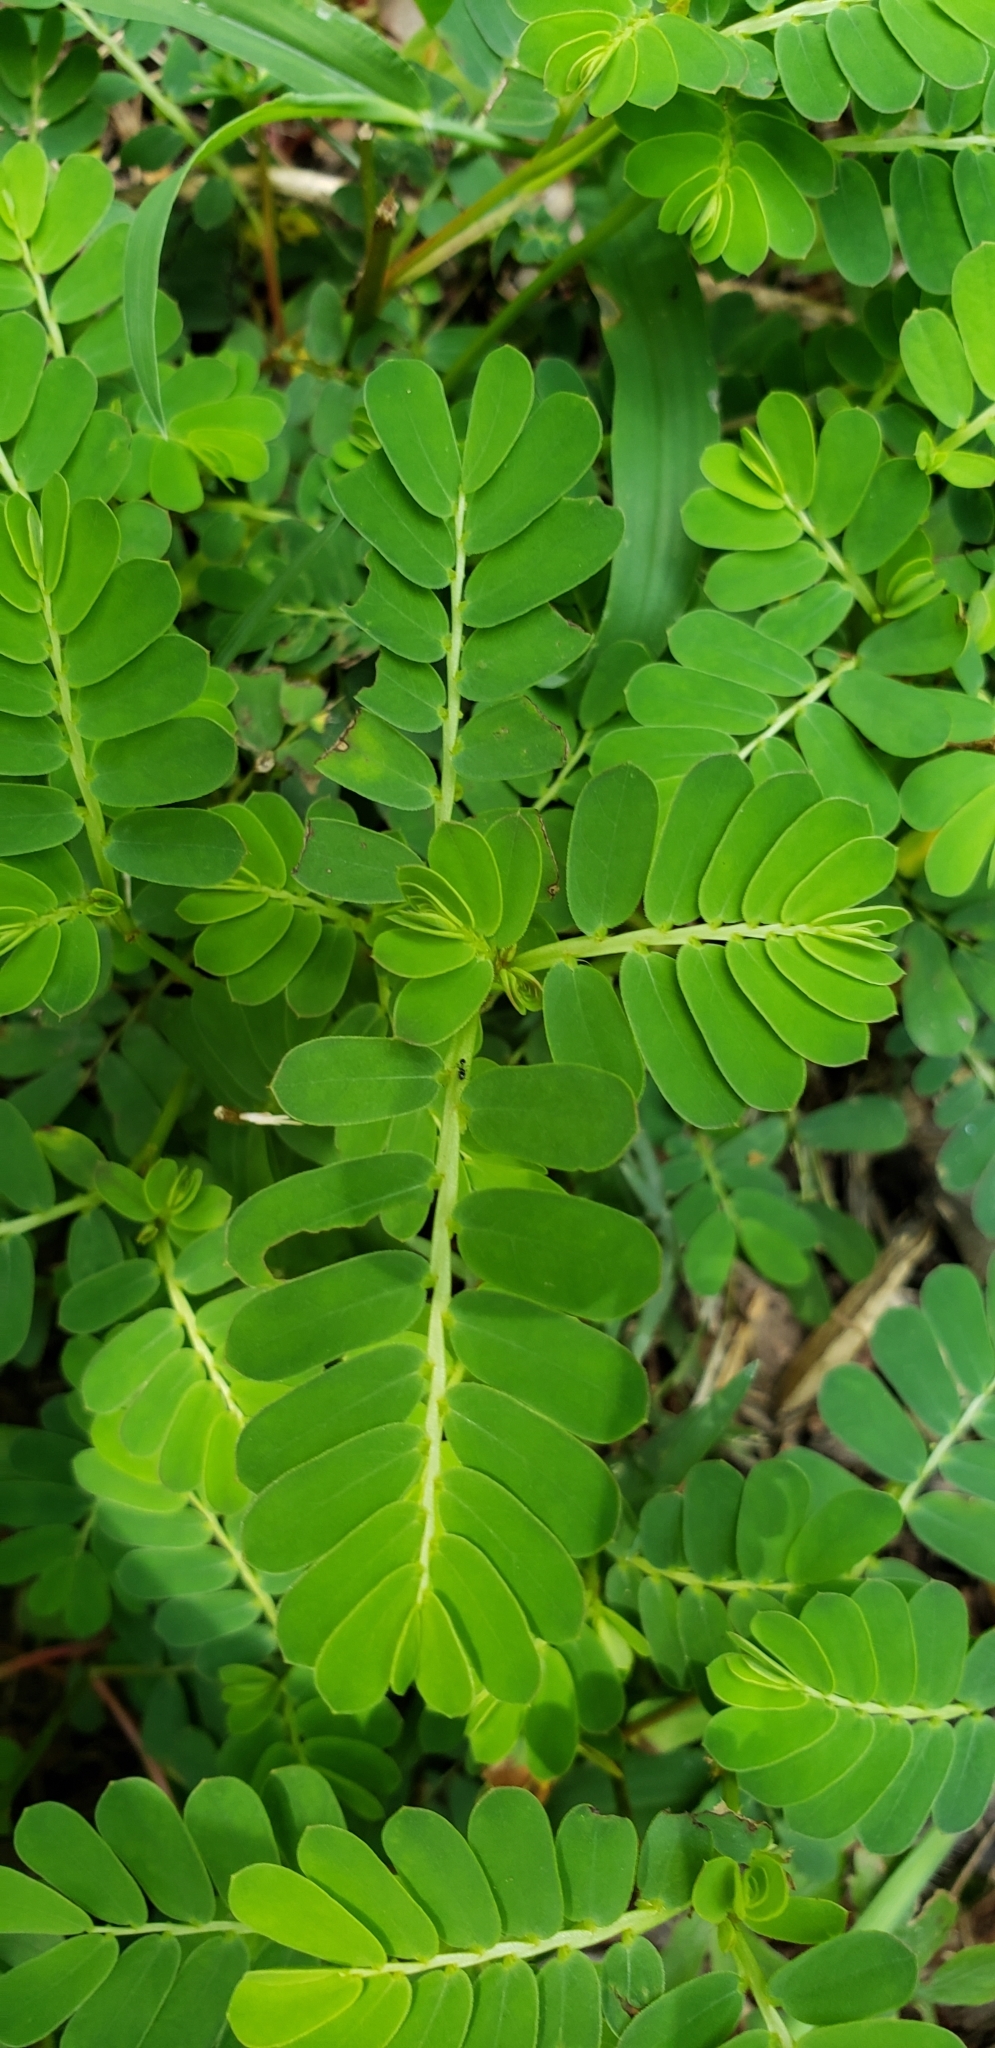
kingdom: Plantae
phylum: Tracheophyta
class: Magnoliopsida
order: Malpighiales
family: Phyllanthaceae
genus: Phyllanthus
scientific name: Phyllanthus urinaria
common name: Chamber bitter
